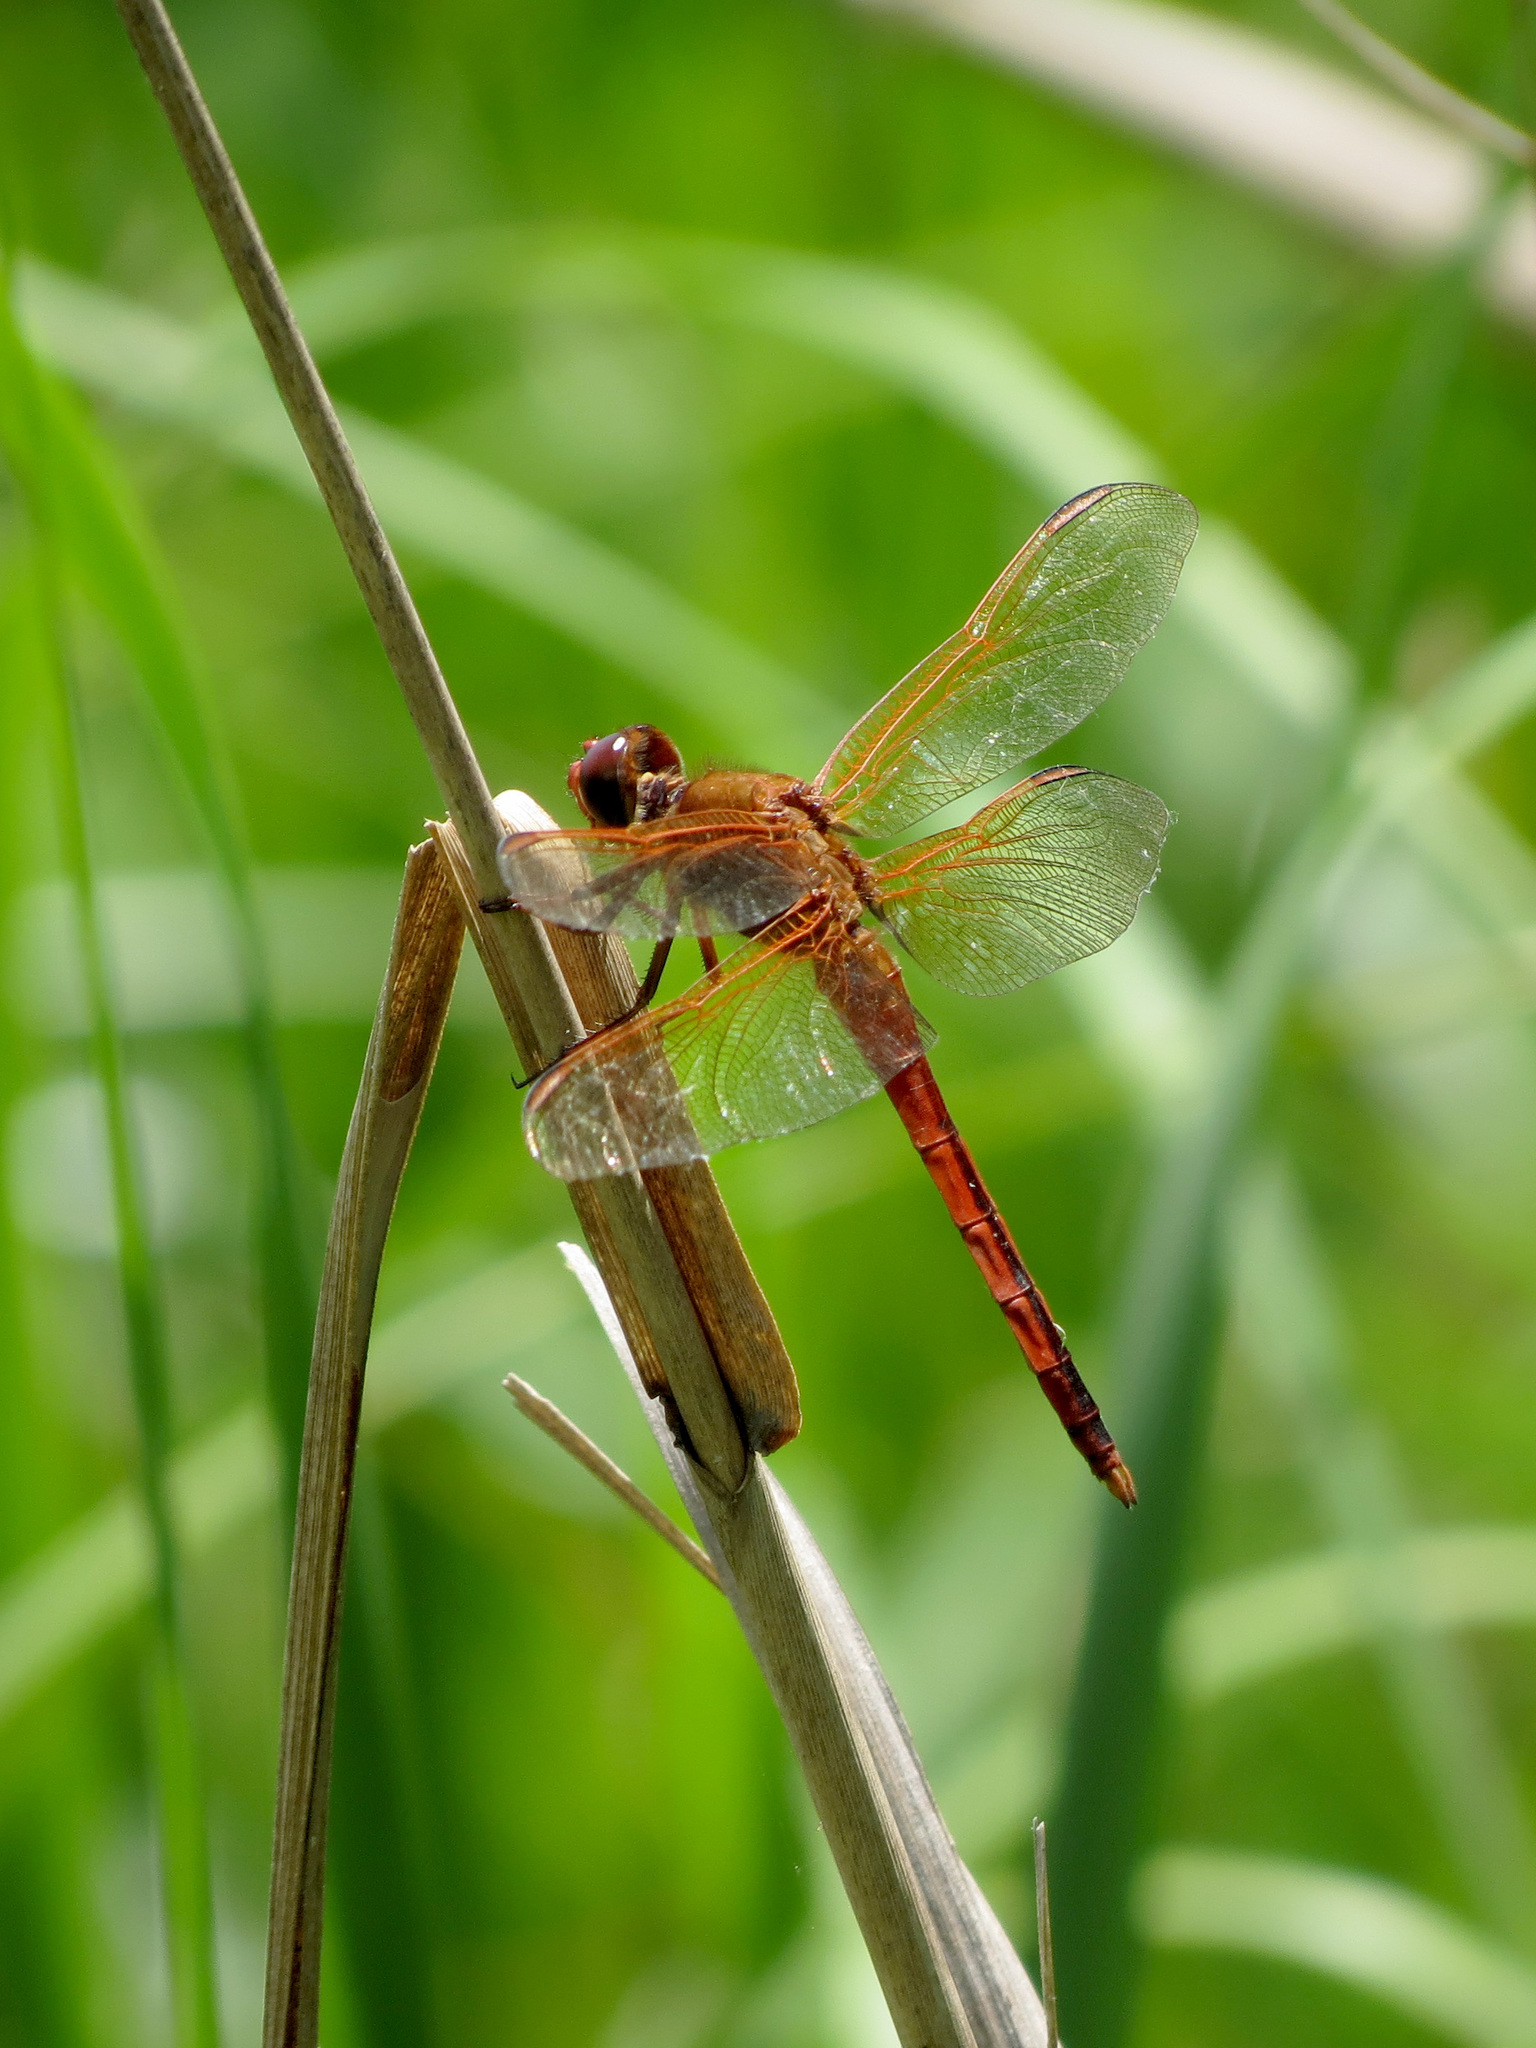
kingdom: Animalia
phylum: Arthropoda
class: Insecta
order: Odonata
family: Libellulidae
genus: Libellula
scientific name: Libellula needhami
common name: Needham's skimmer
